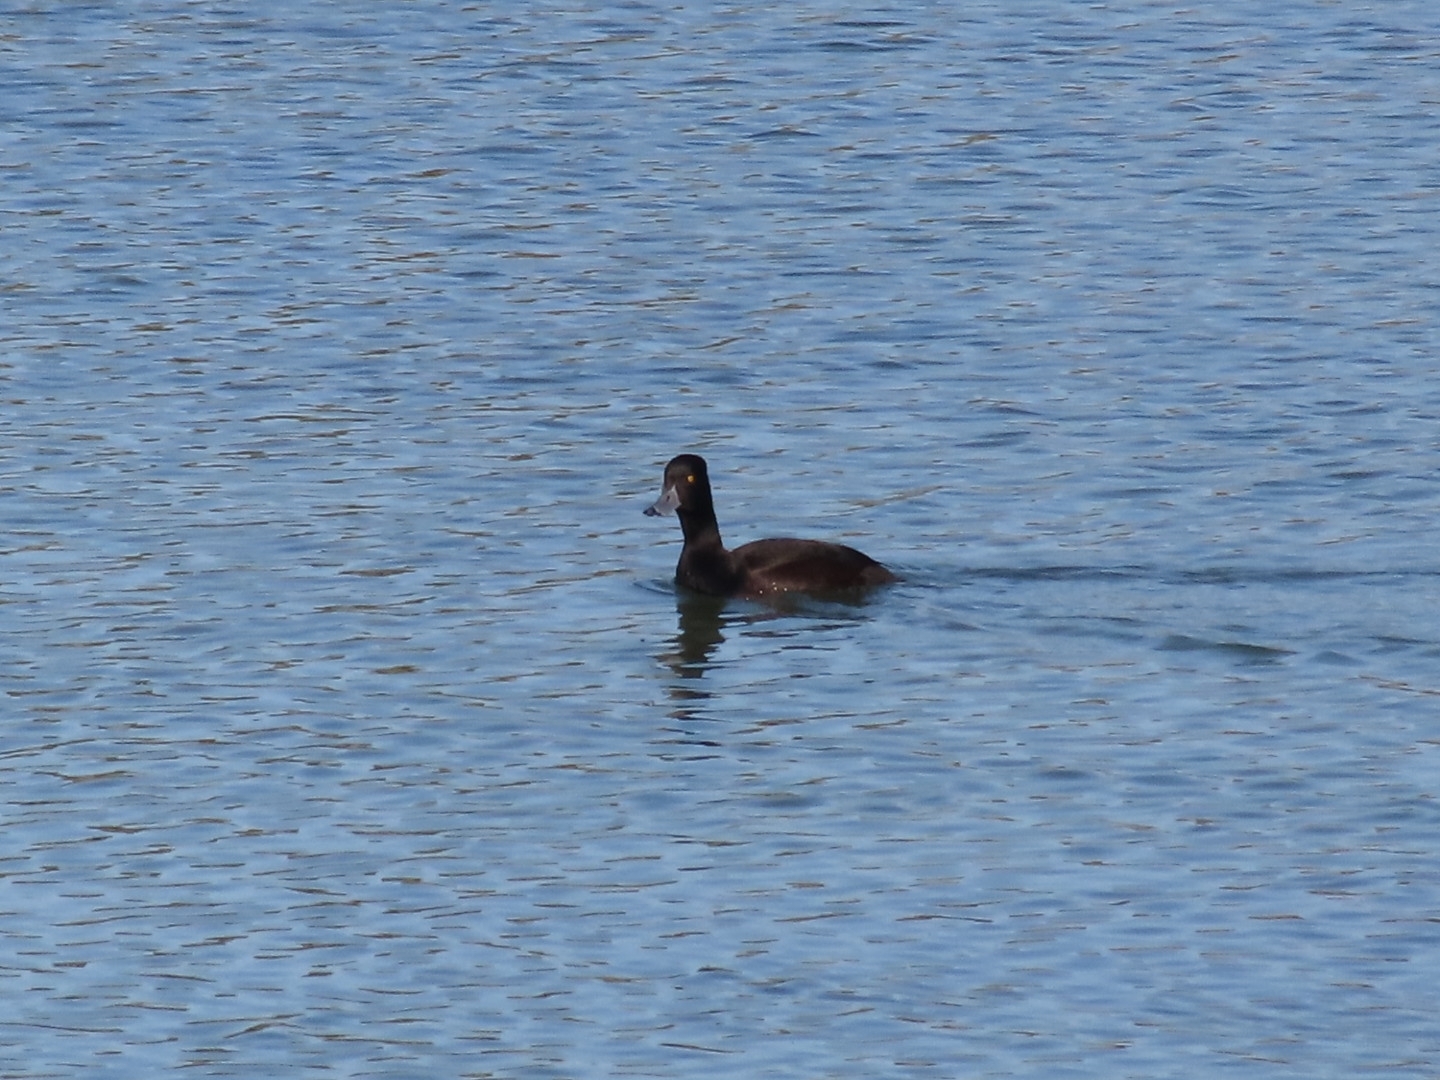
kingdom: Animalia
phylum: Chordata
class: Aves
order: Anseriformes
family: Anatidae
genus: Aythya
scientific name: Aythya novaeseelandiae
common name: New zealand scaup
